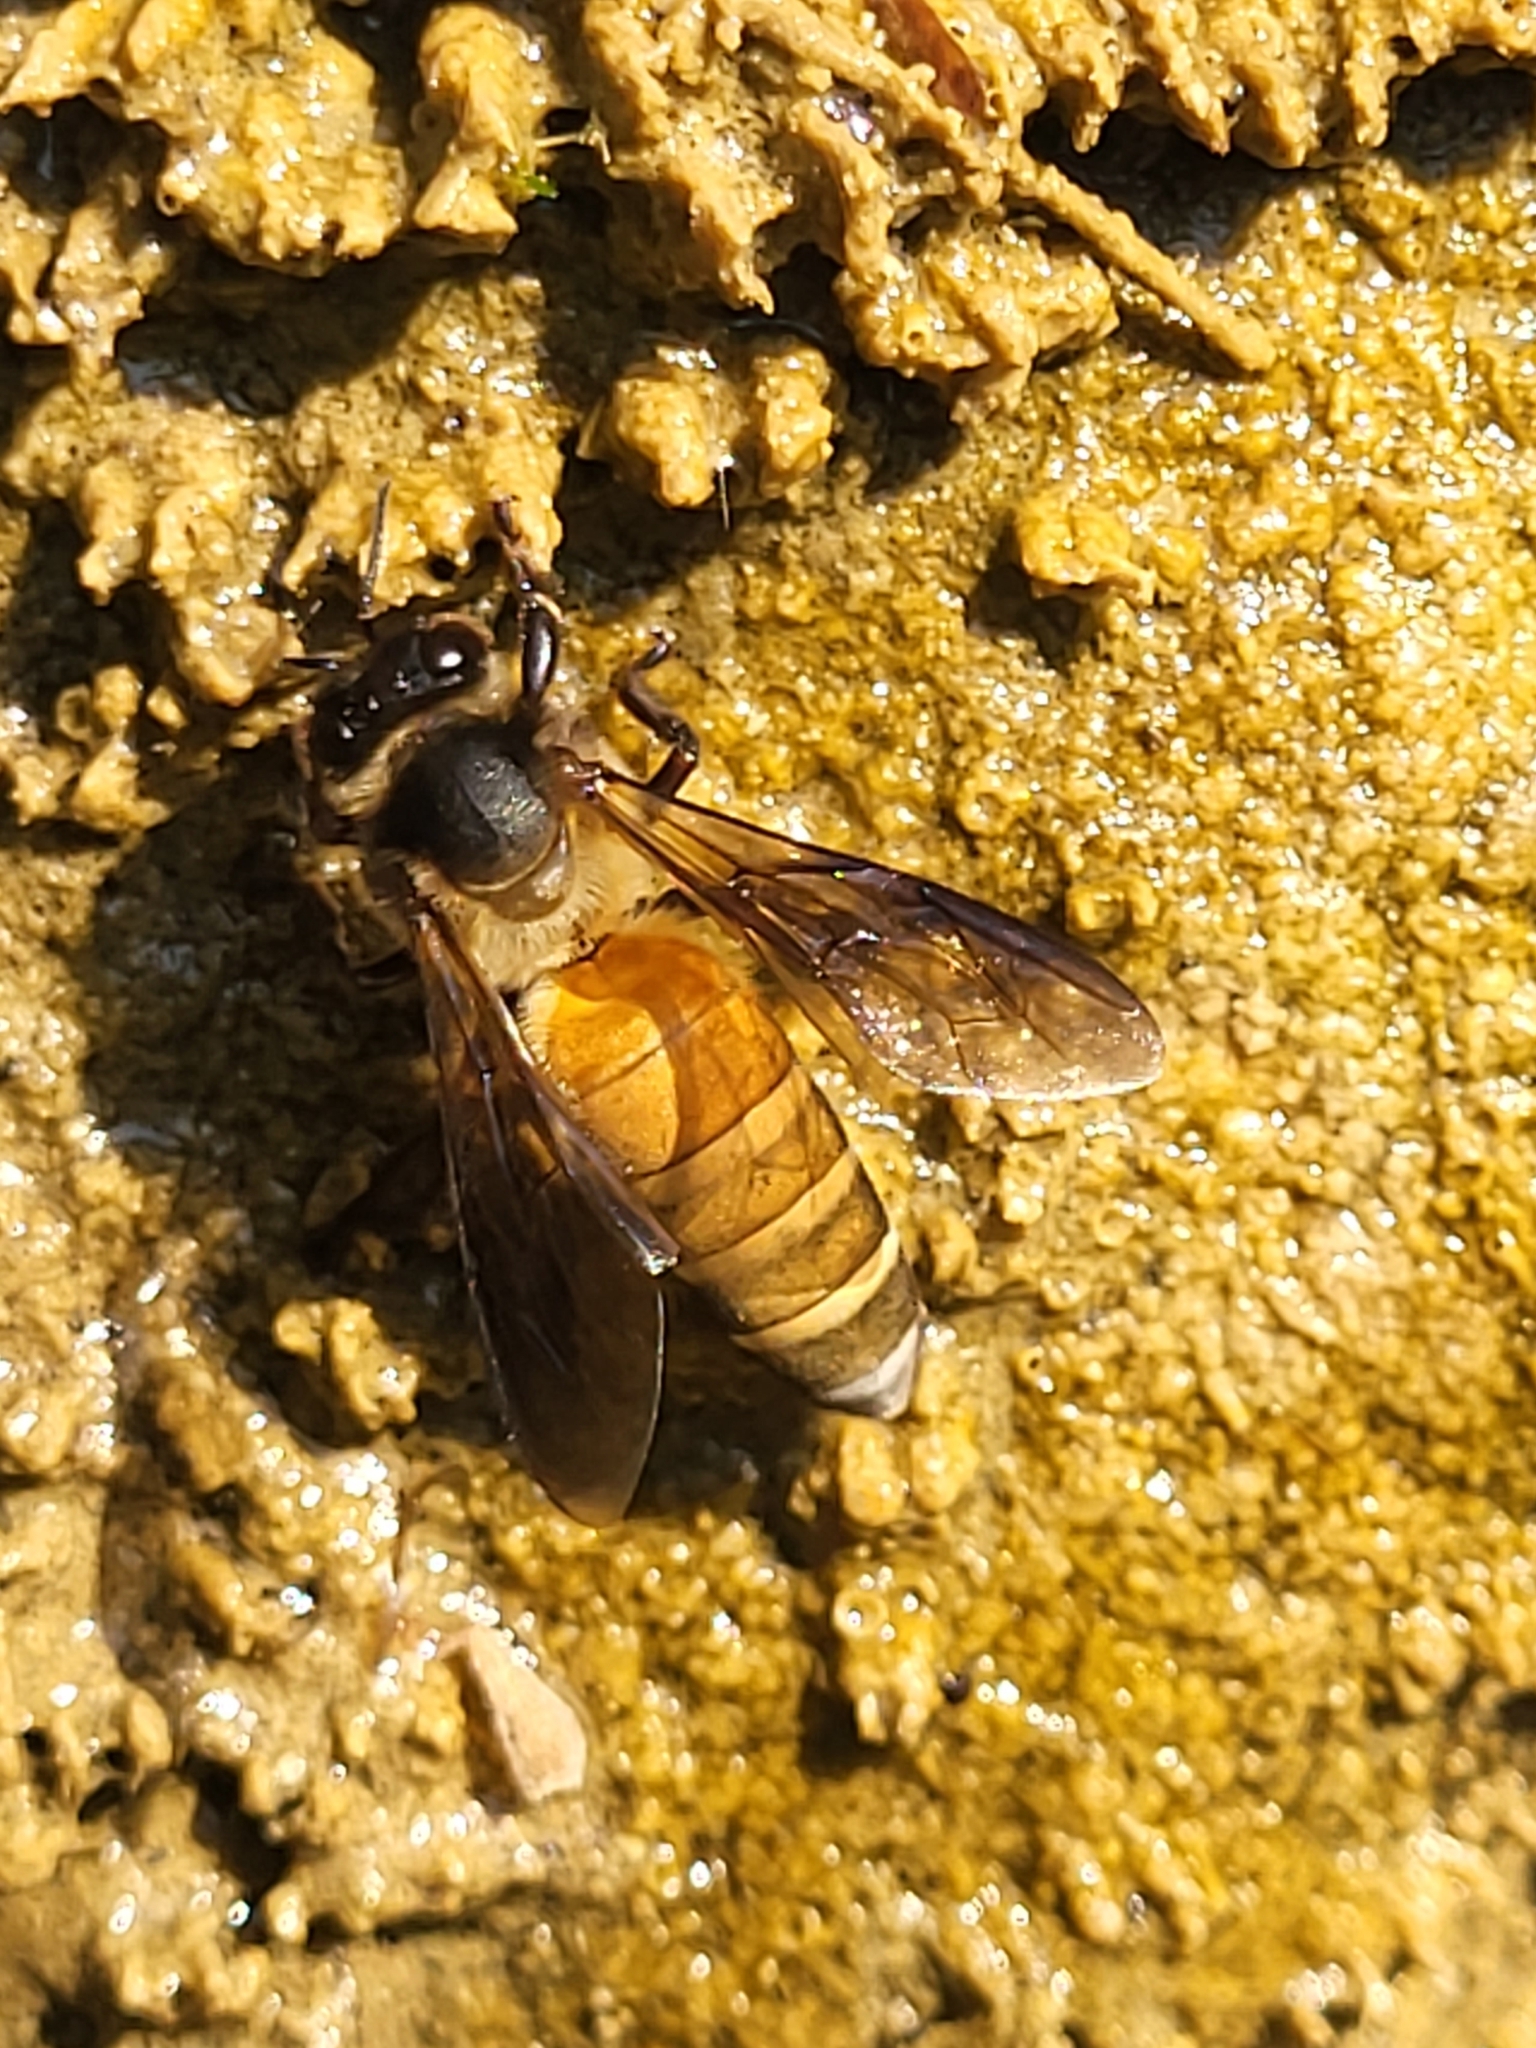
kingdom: Animalia
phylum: Arthropoda
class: Insecta
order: Hymenoptera
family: Apidae
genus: Apis
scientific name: Apis dorsata
